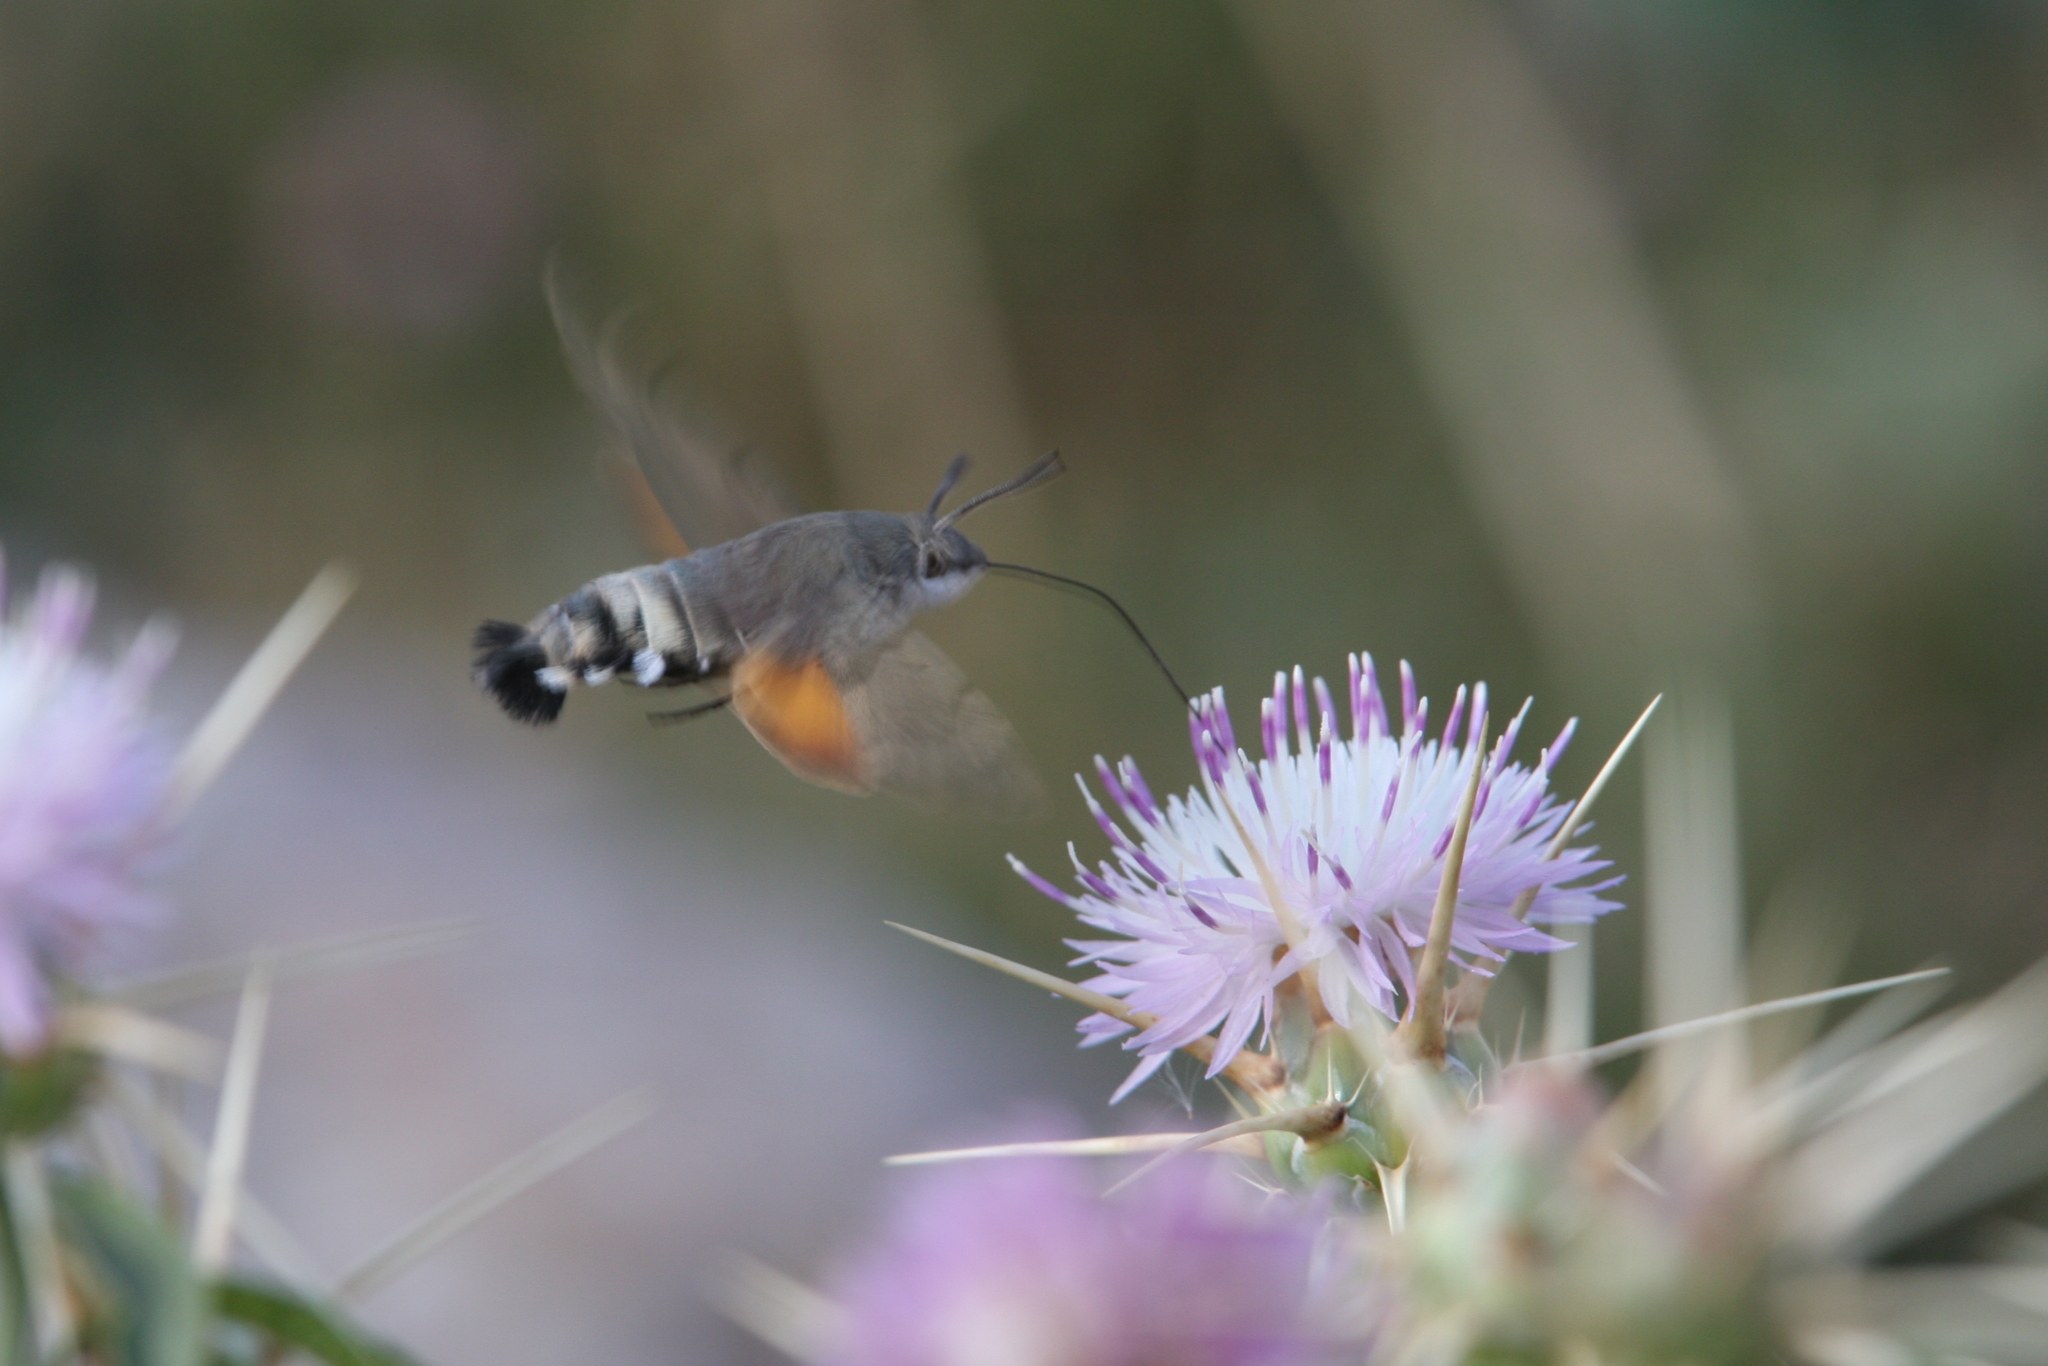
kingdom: Animalia
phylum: Arthropoda
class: Insecta
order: Lepidoptera
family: Sphingidae
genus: Macroglossum
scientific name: Macroglossum stellatarum
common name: Humming-bird hawk-moth
